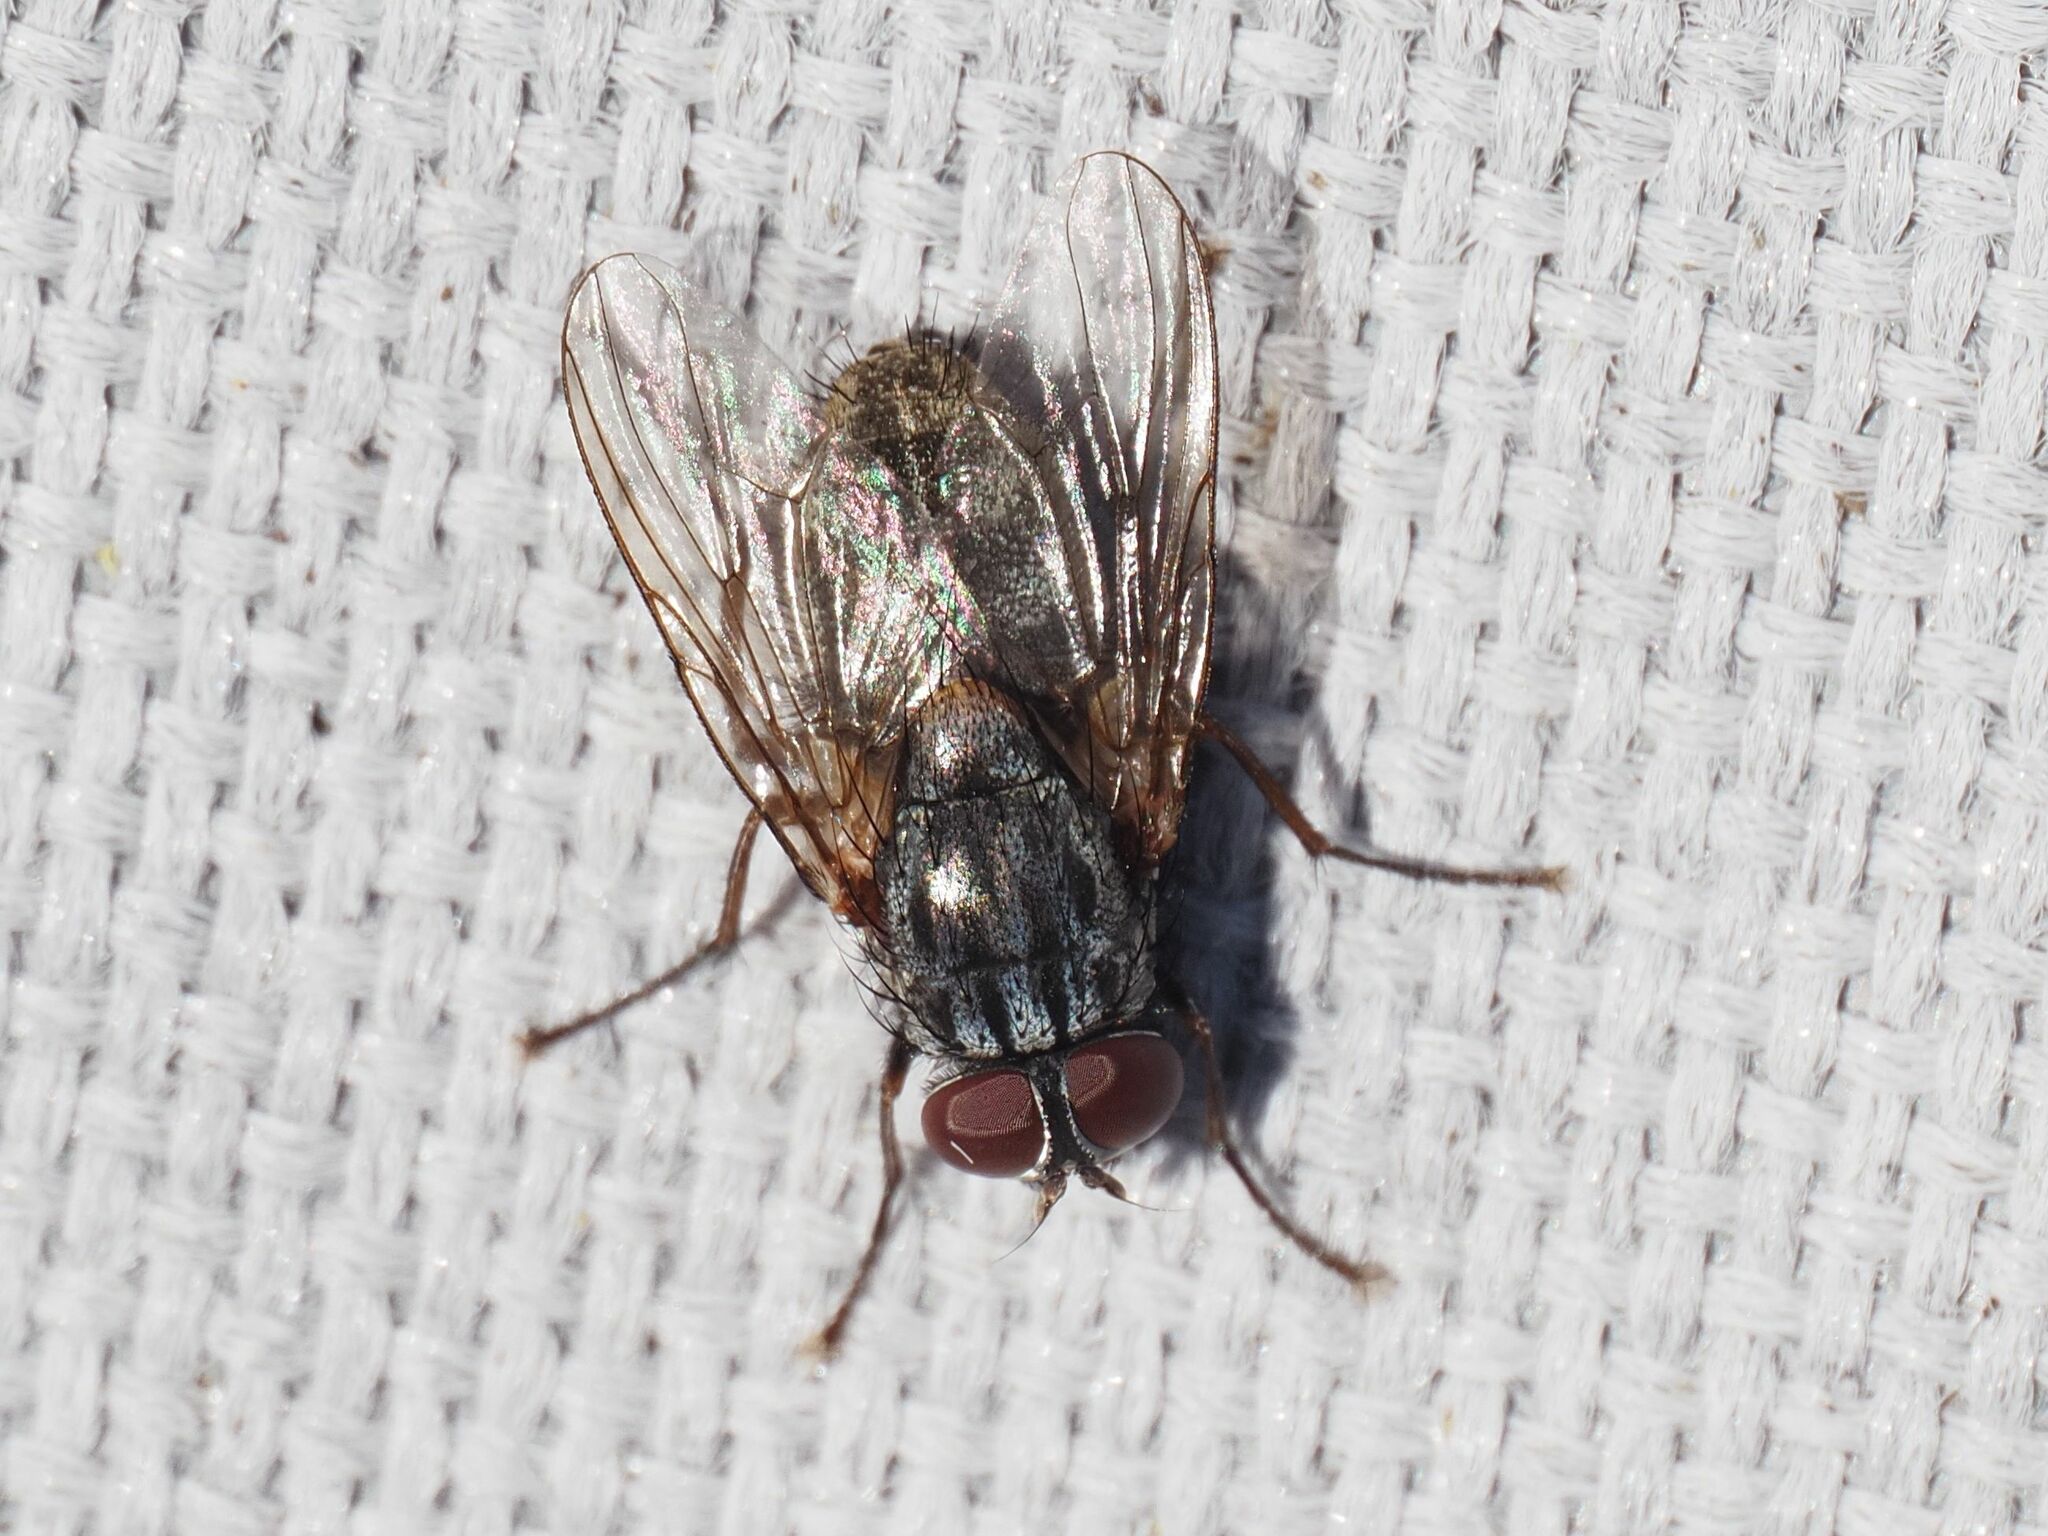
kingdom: Animalia
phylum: Arthropoda
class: Insecta
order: Diptera
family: Muscidae
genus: Muscina
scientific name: Muscina stabulans
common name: False stable fly
